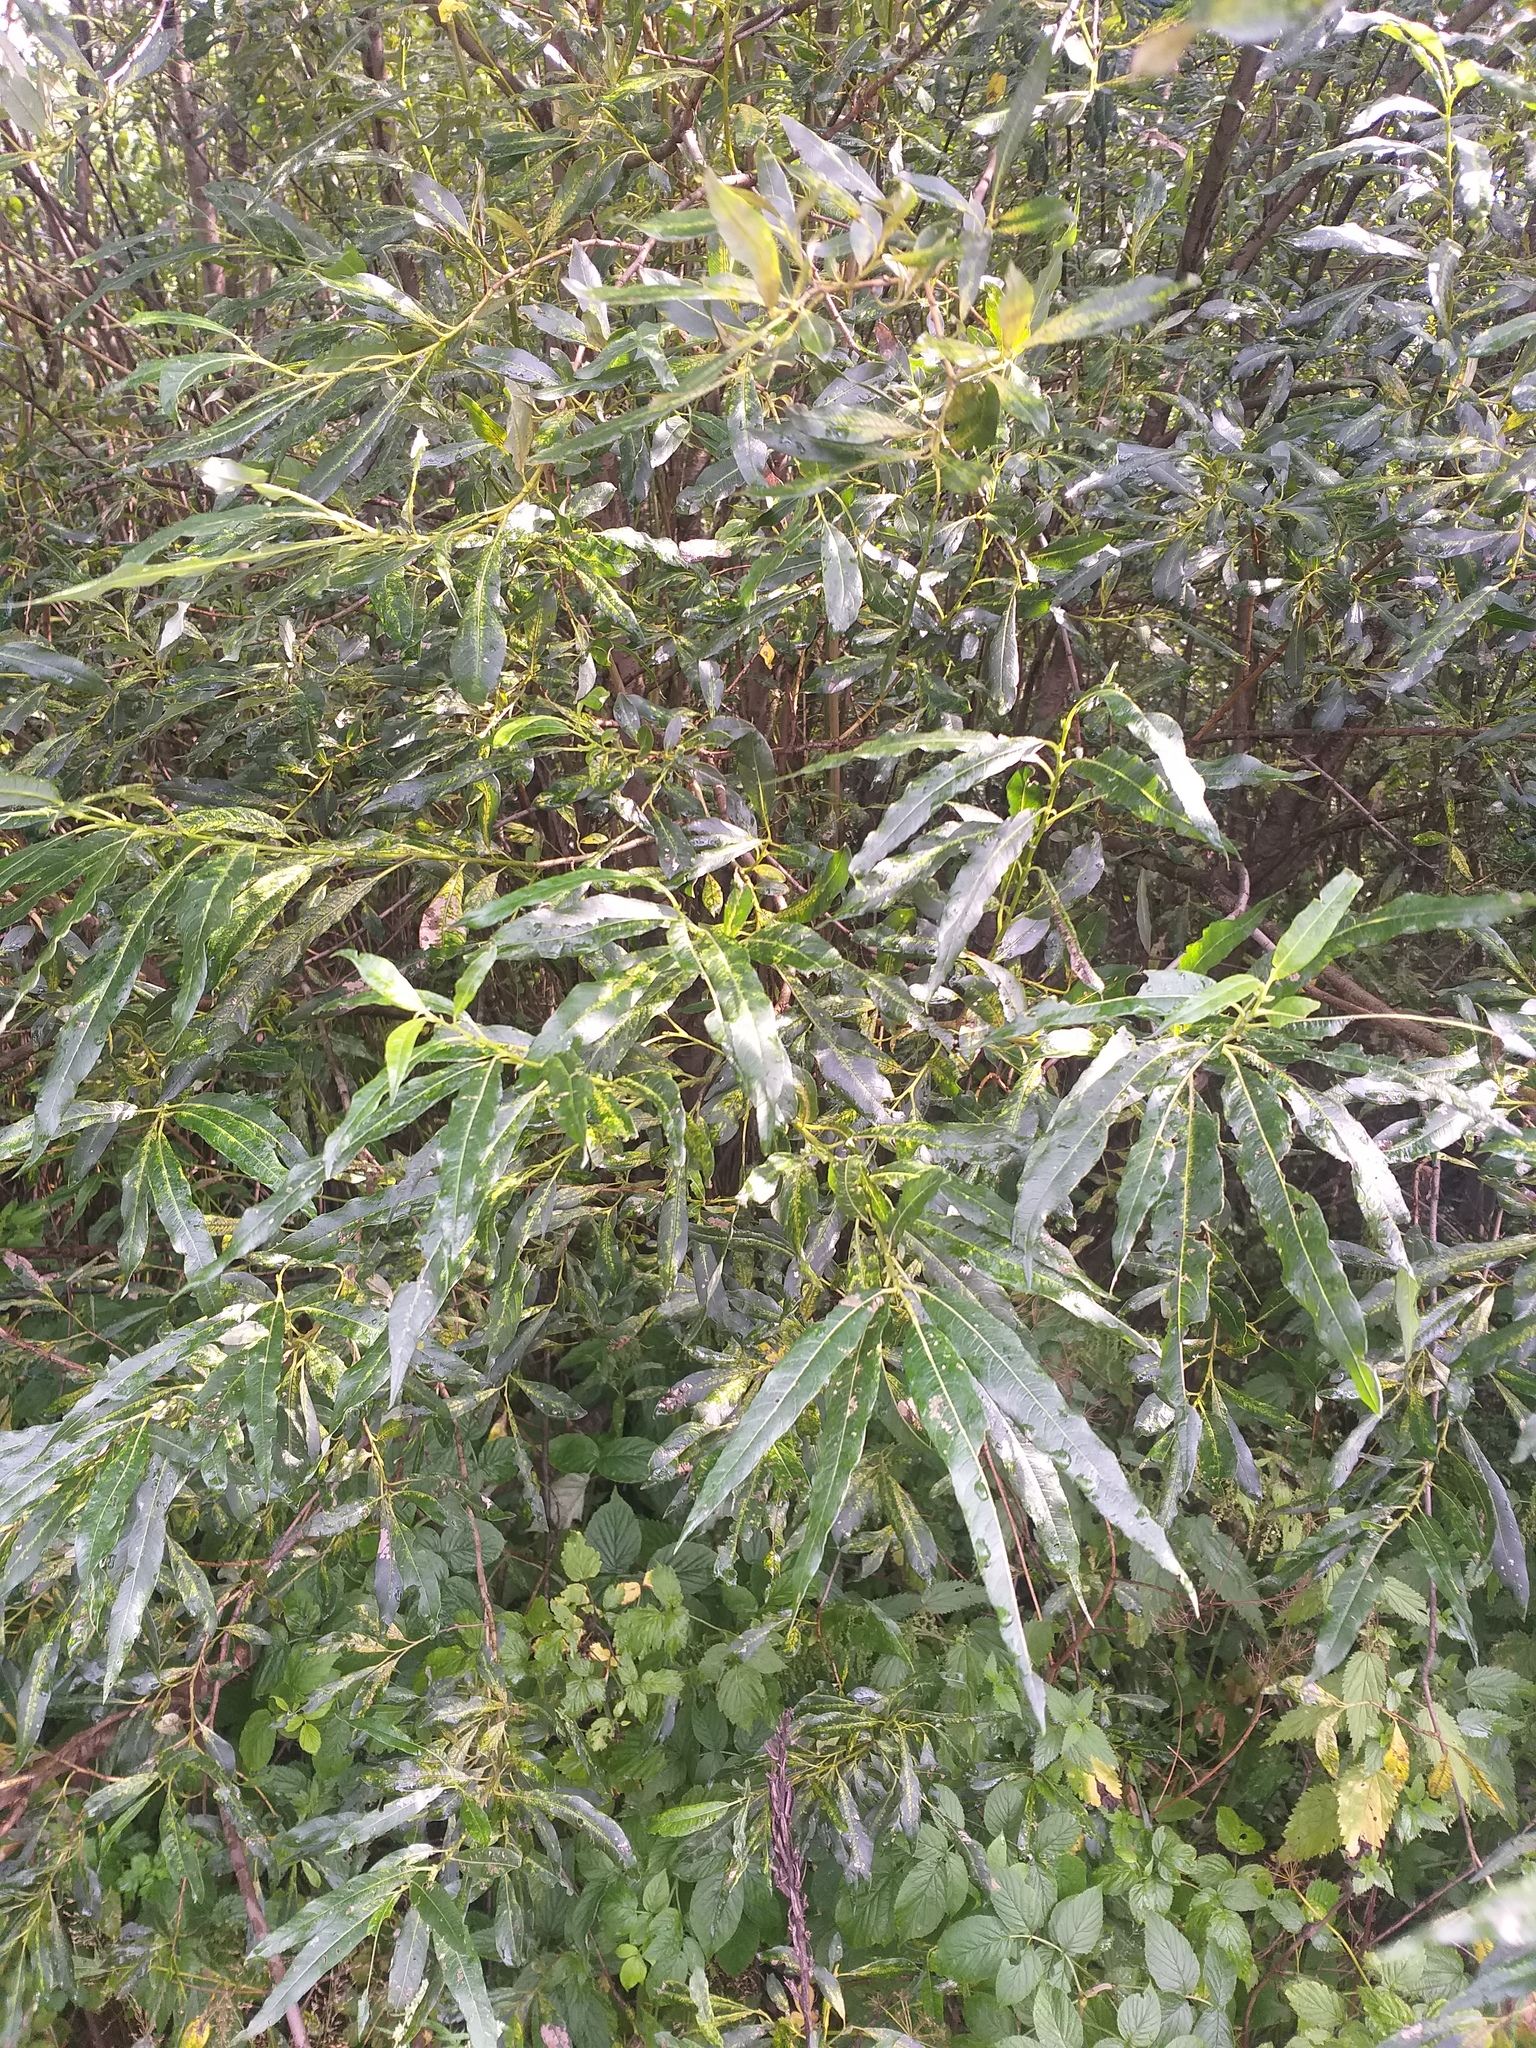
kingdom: Plantae
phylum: Tracheophyta
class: Magnoliopsida
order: Malpighiales
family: Salicaceae
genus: Salix
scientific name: Salix viminalis
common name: Osier
